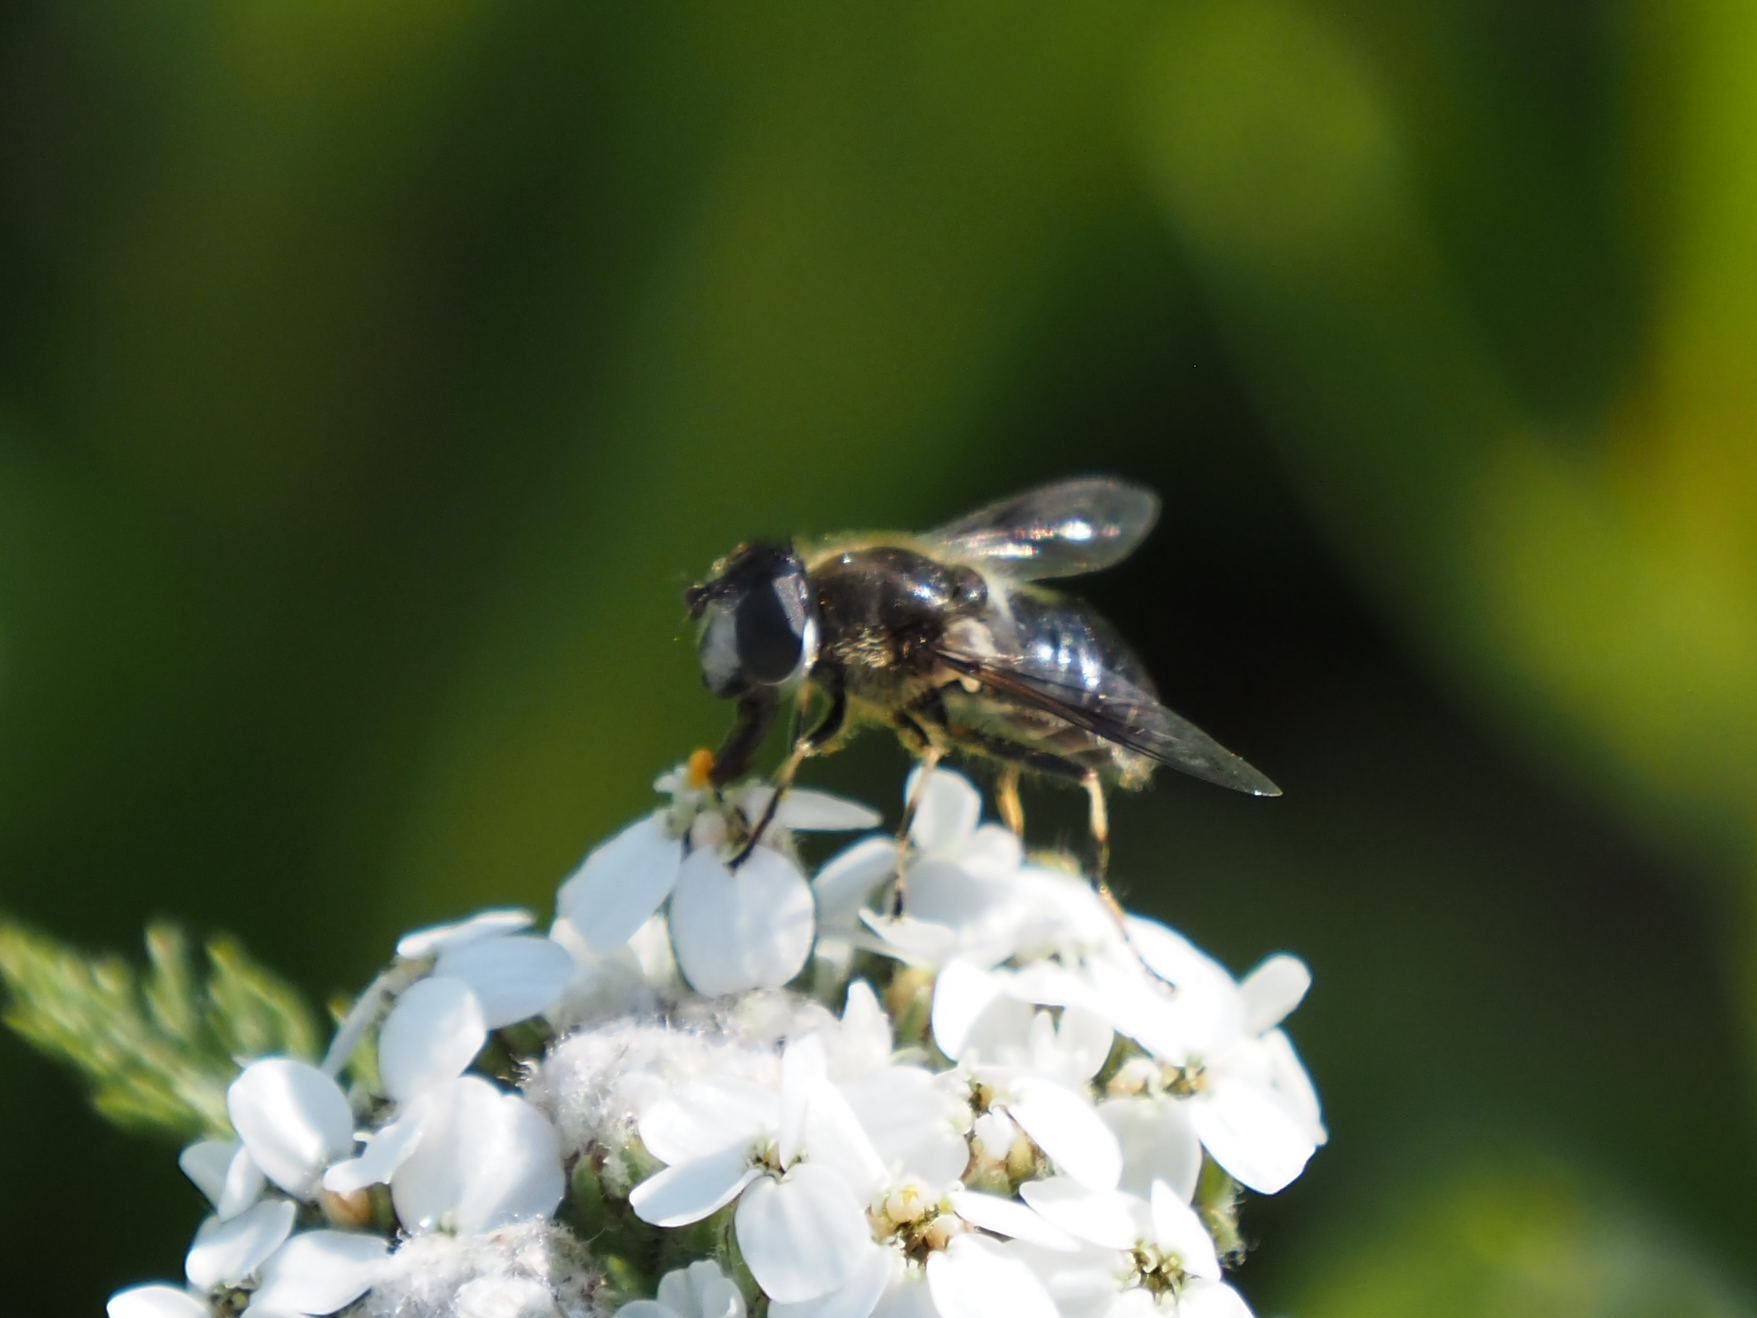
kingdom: Animalia
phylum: Arthropoda
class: Insecta
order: Diptera
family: Syrphidae
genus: Eristalis
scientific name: Eristalis rupium
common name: Hover fly
